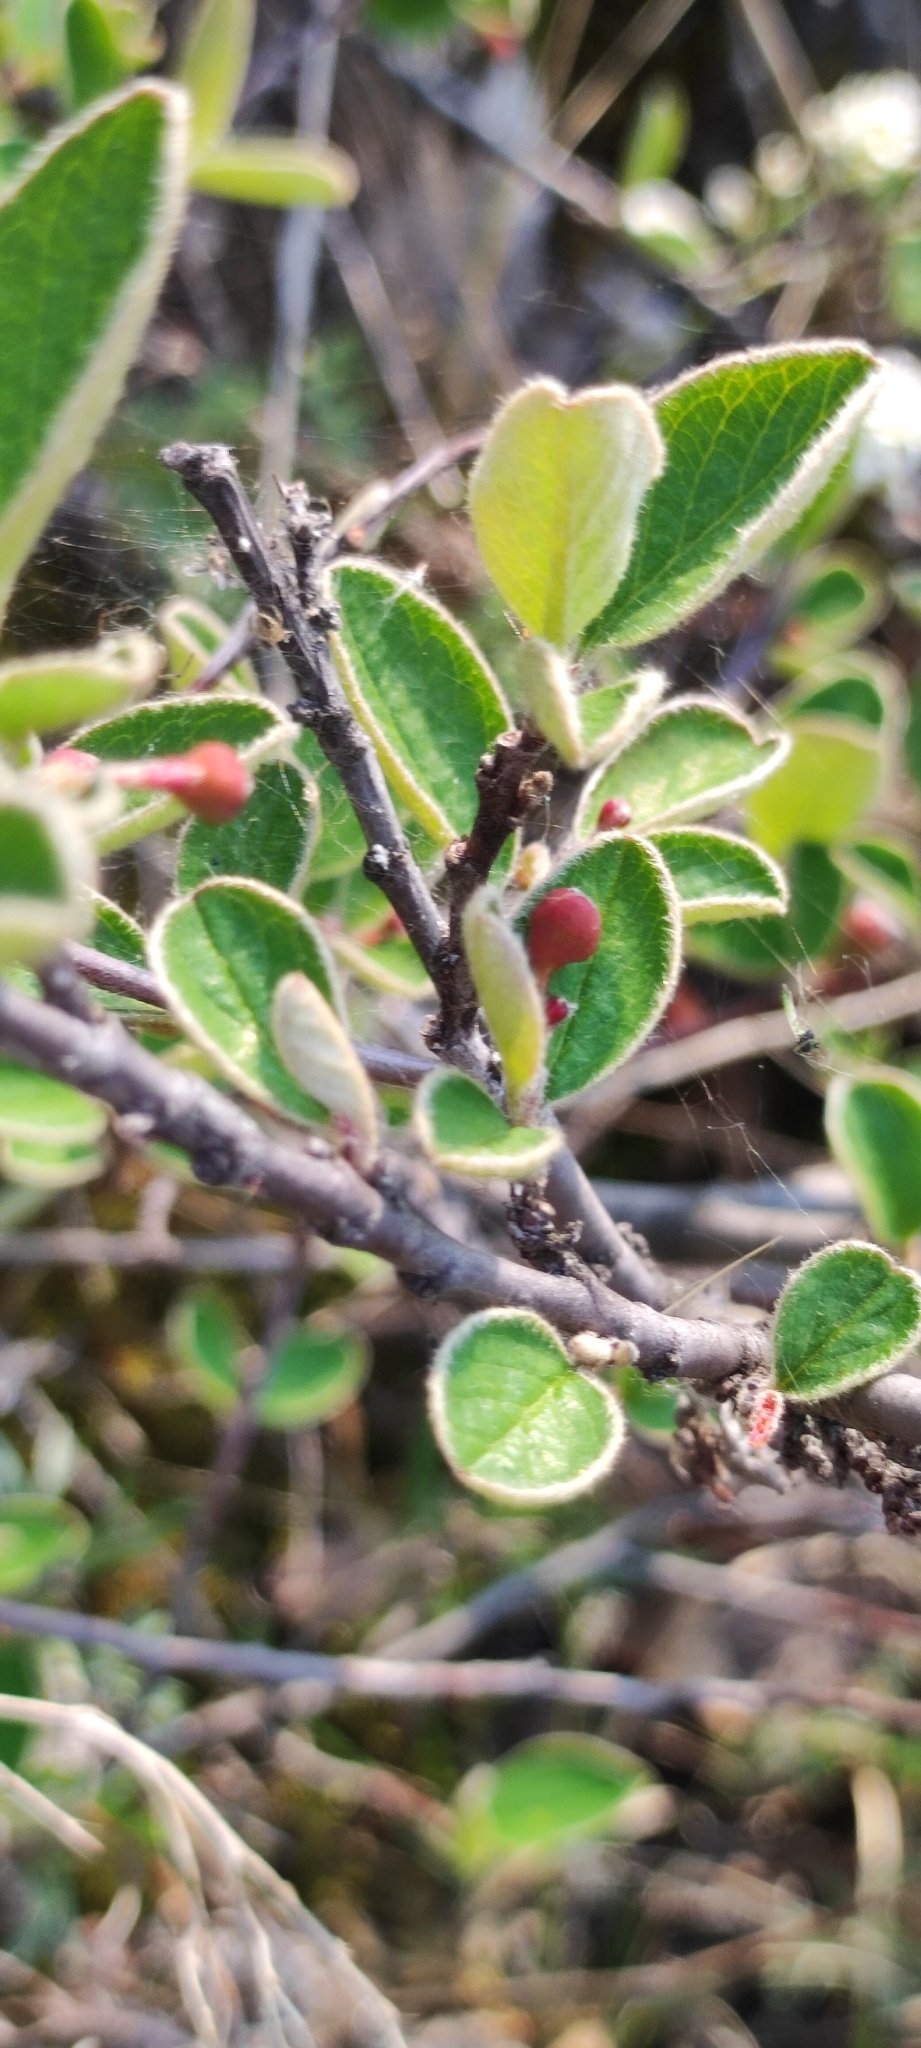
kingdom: Plantae
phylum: Tracheophyta
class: Magnoliopsida
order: Rosales
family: Rosaceae
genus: Cotoneaster
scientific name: Cotoneaster melanocarpus
